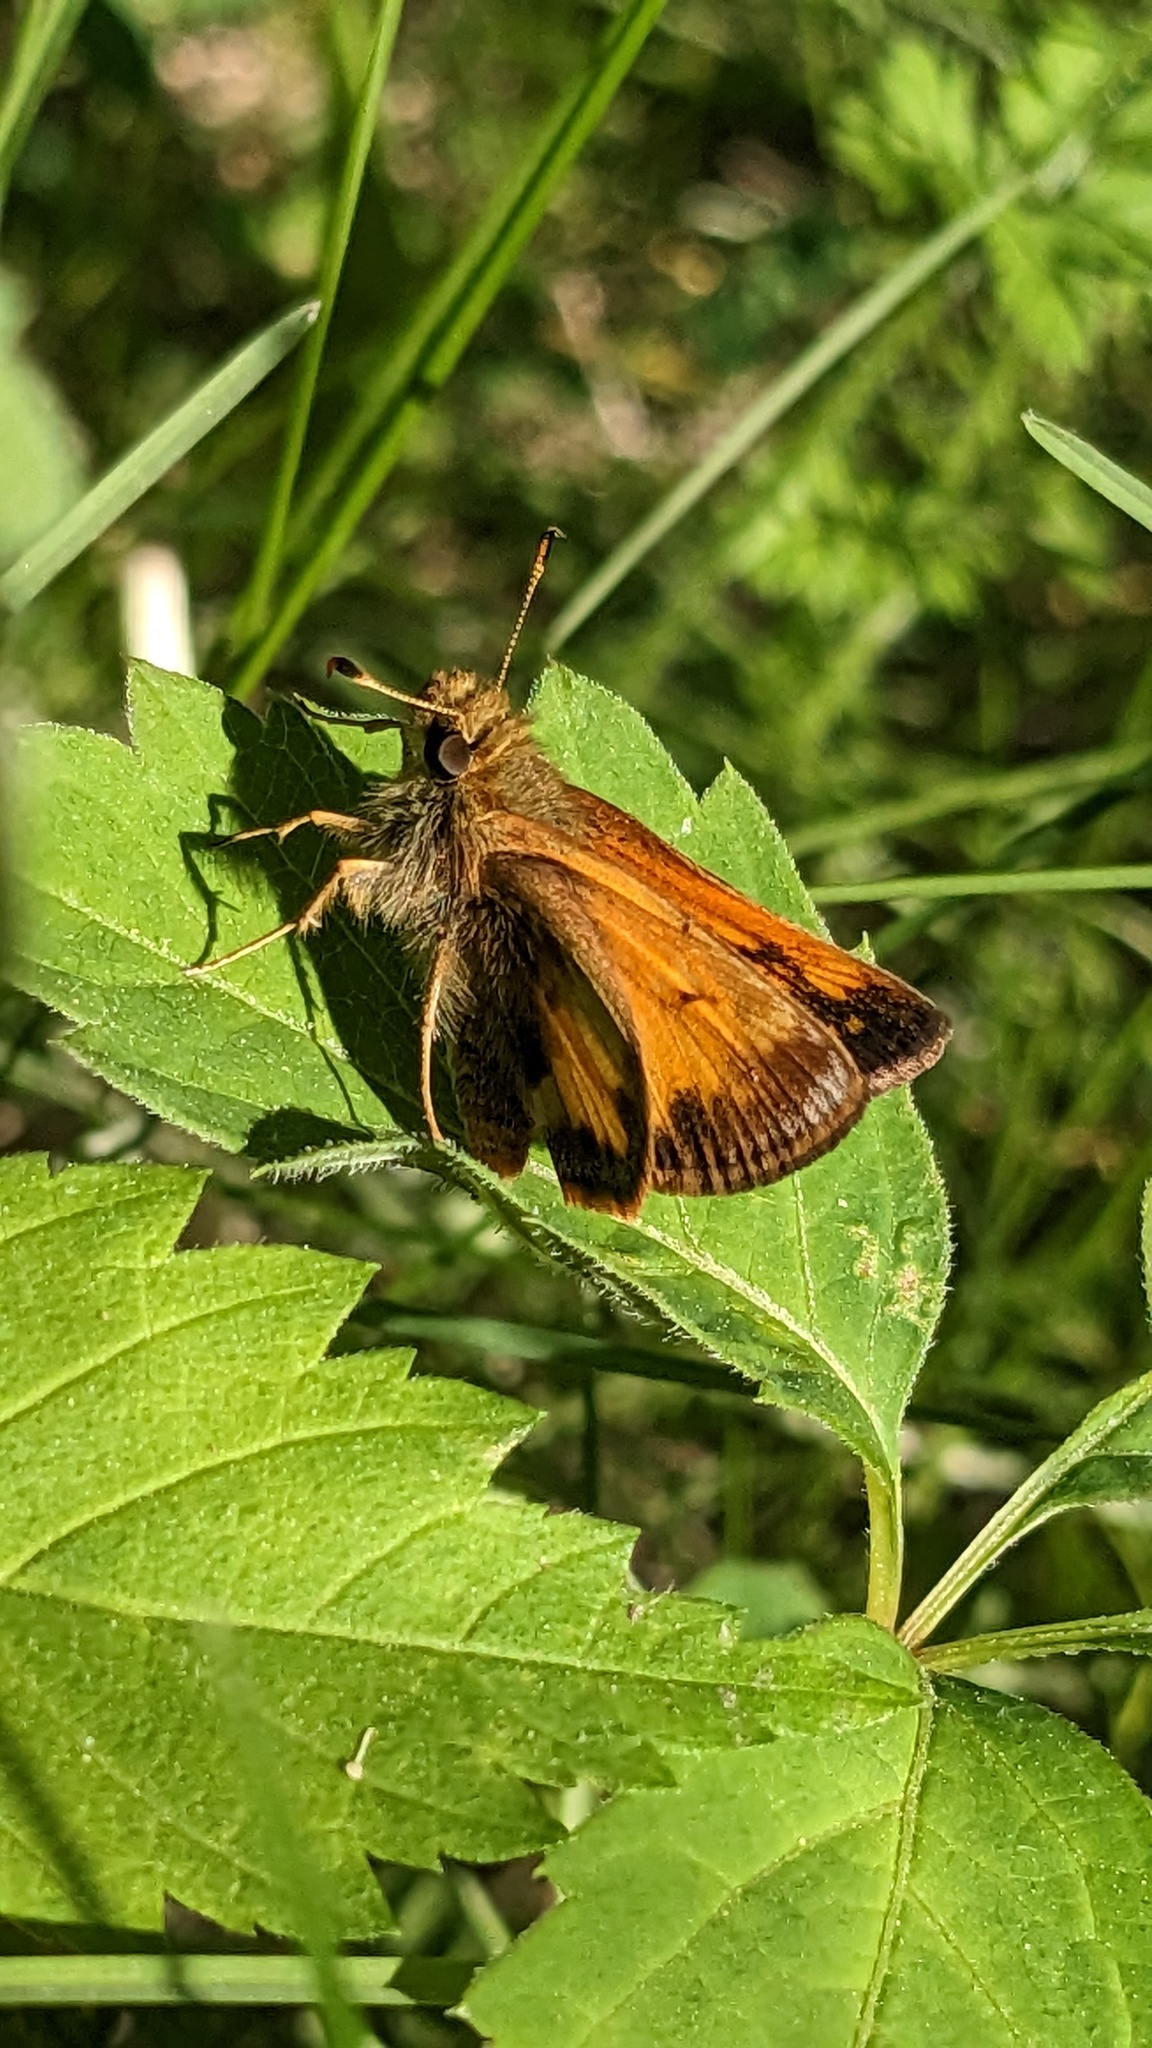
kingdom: Animalia
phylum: Arthropoda
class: Insecta
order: Lepidoptera
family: Hesperiidae
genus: Lon
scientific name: Lon hobomok
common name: Hobomok skipper
